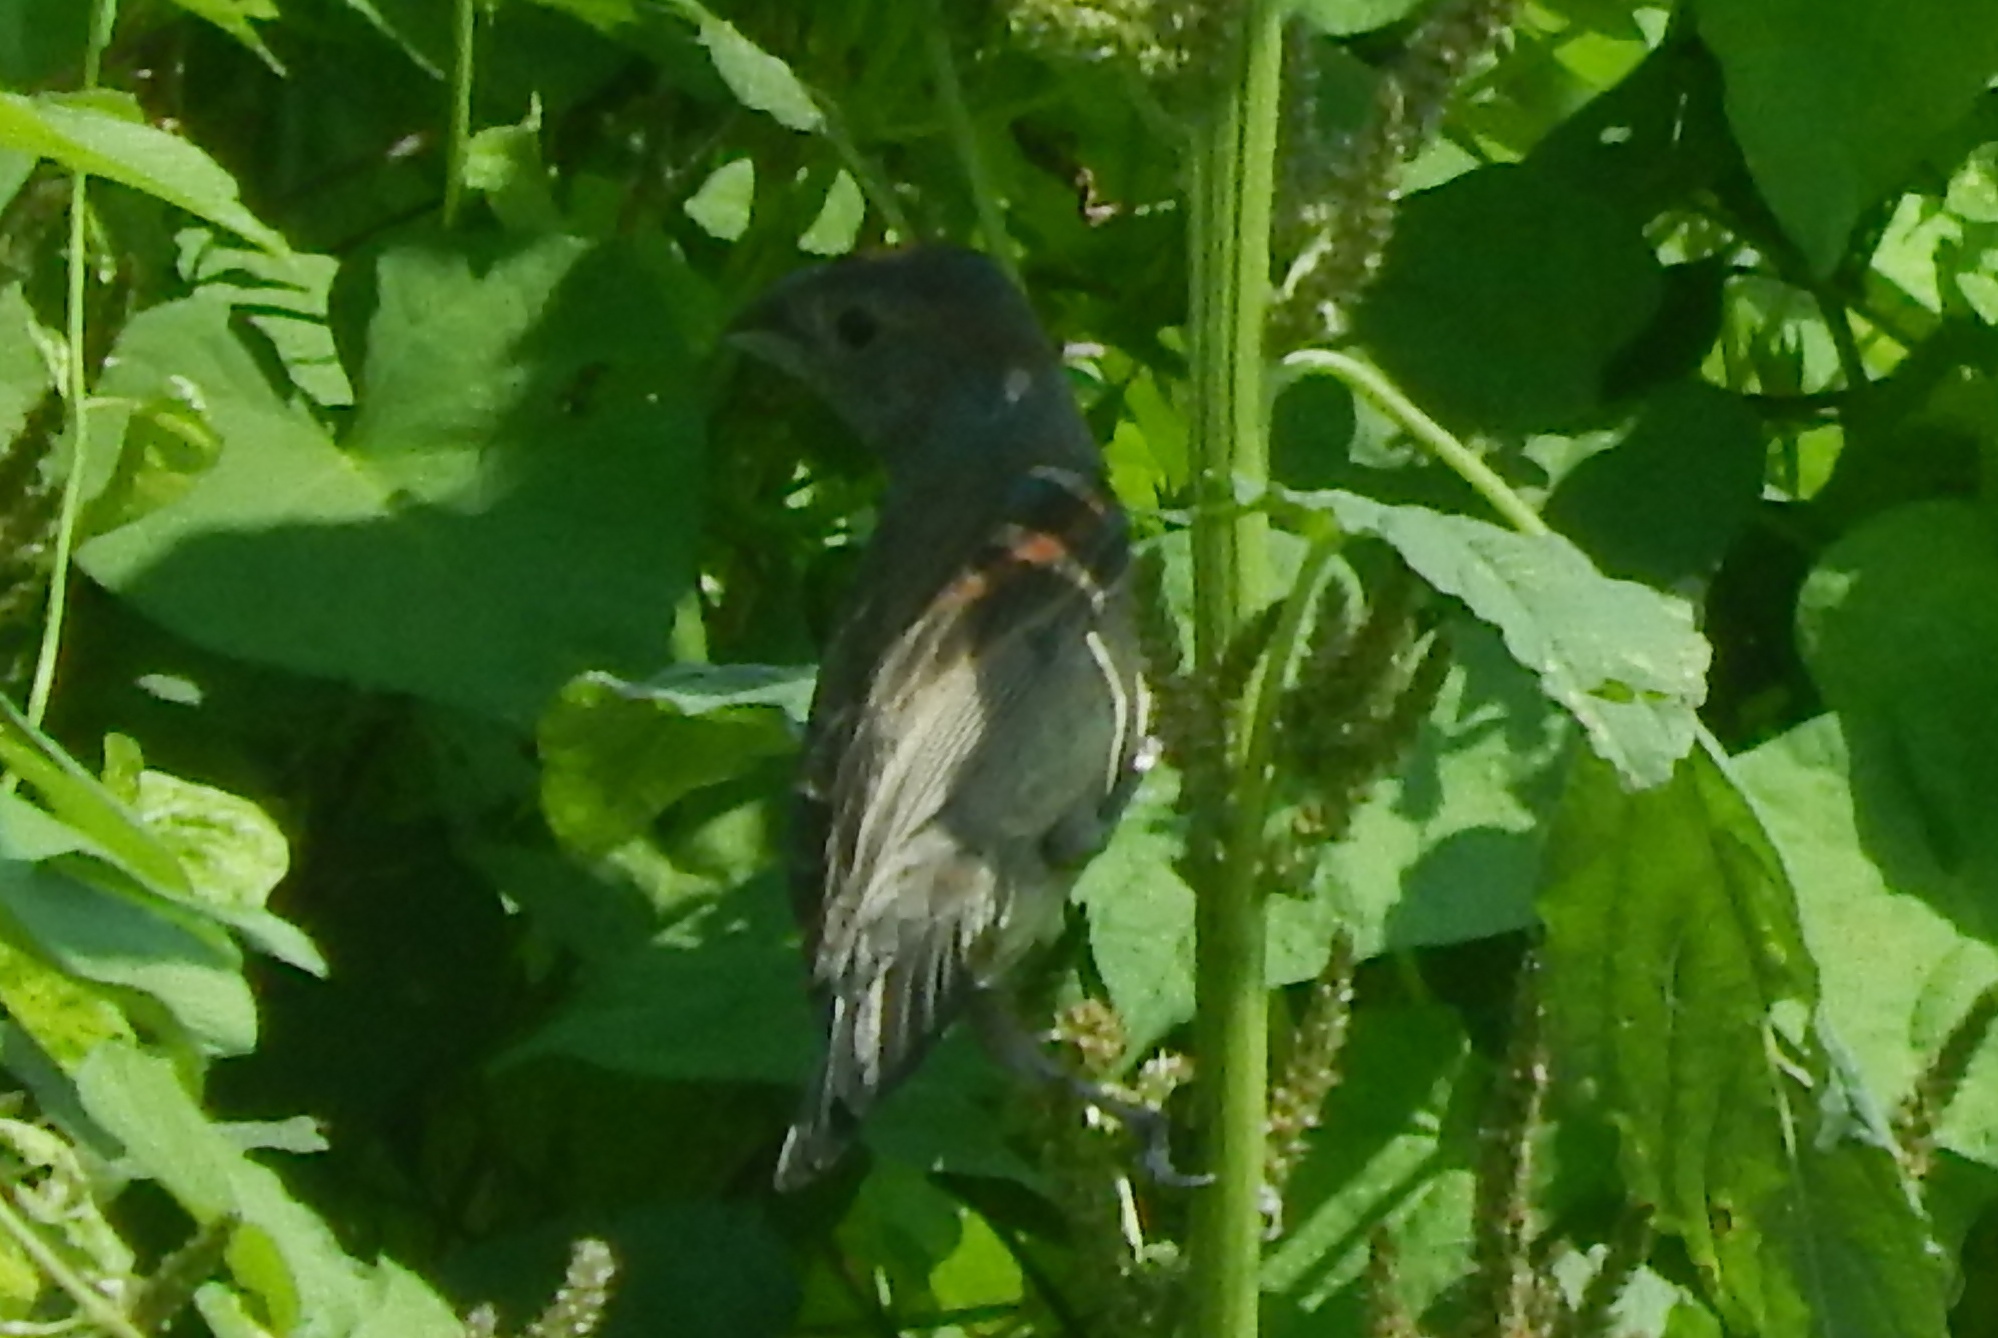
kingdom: Animalia
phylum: Chordata
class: Aves
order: Passeriformes
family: Cardinalidae
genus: Passerina
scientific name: Passerina caerulea
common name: Blue grosbeak
